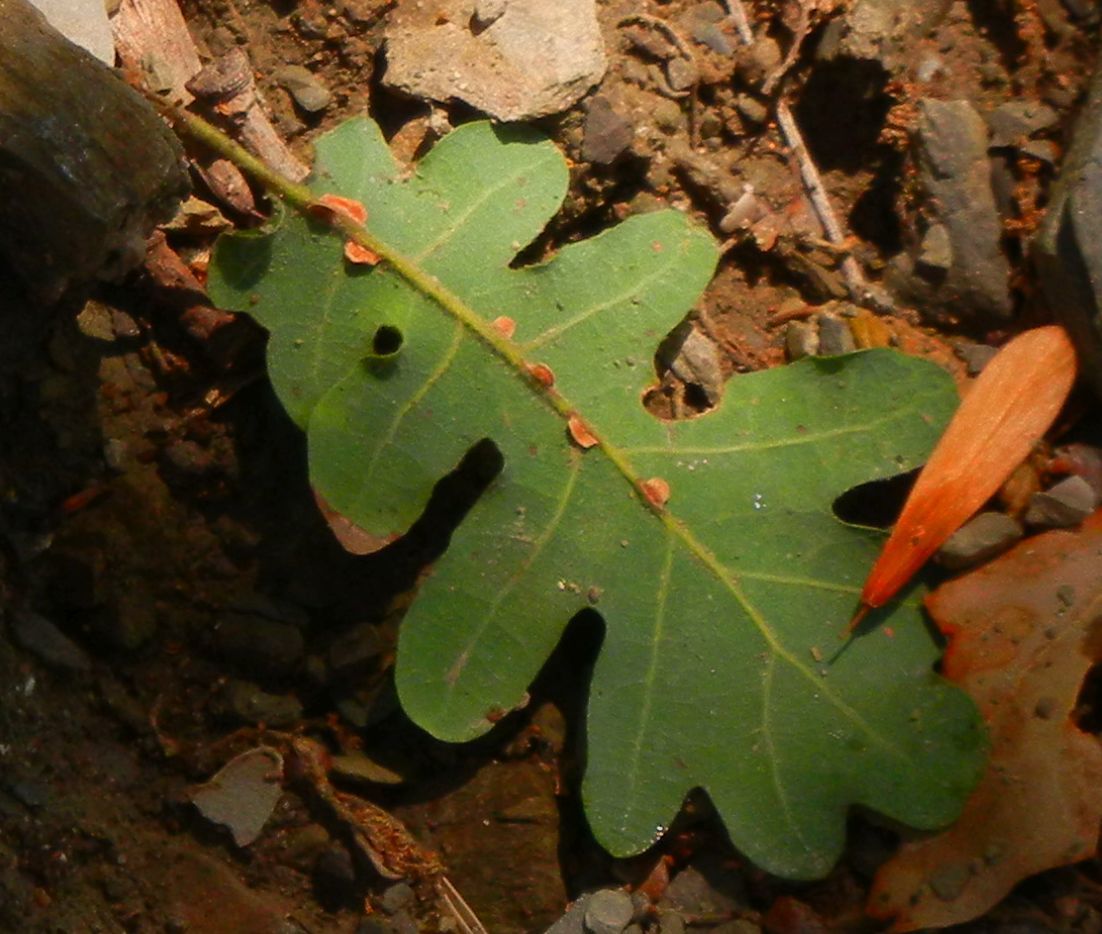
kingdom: Animalia
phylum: Arthropoda
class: Insecta
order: Hymenoptera
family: Cynipidae
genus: Neuroterus
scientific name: Neuroterus anthracinus
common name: Oyster gall
